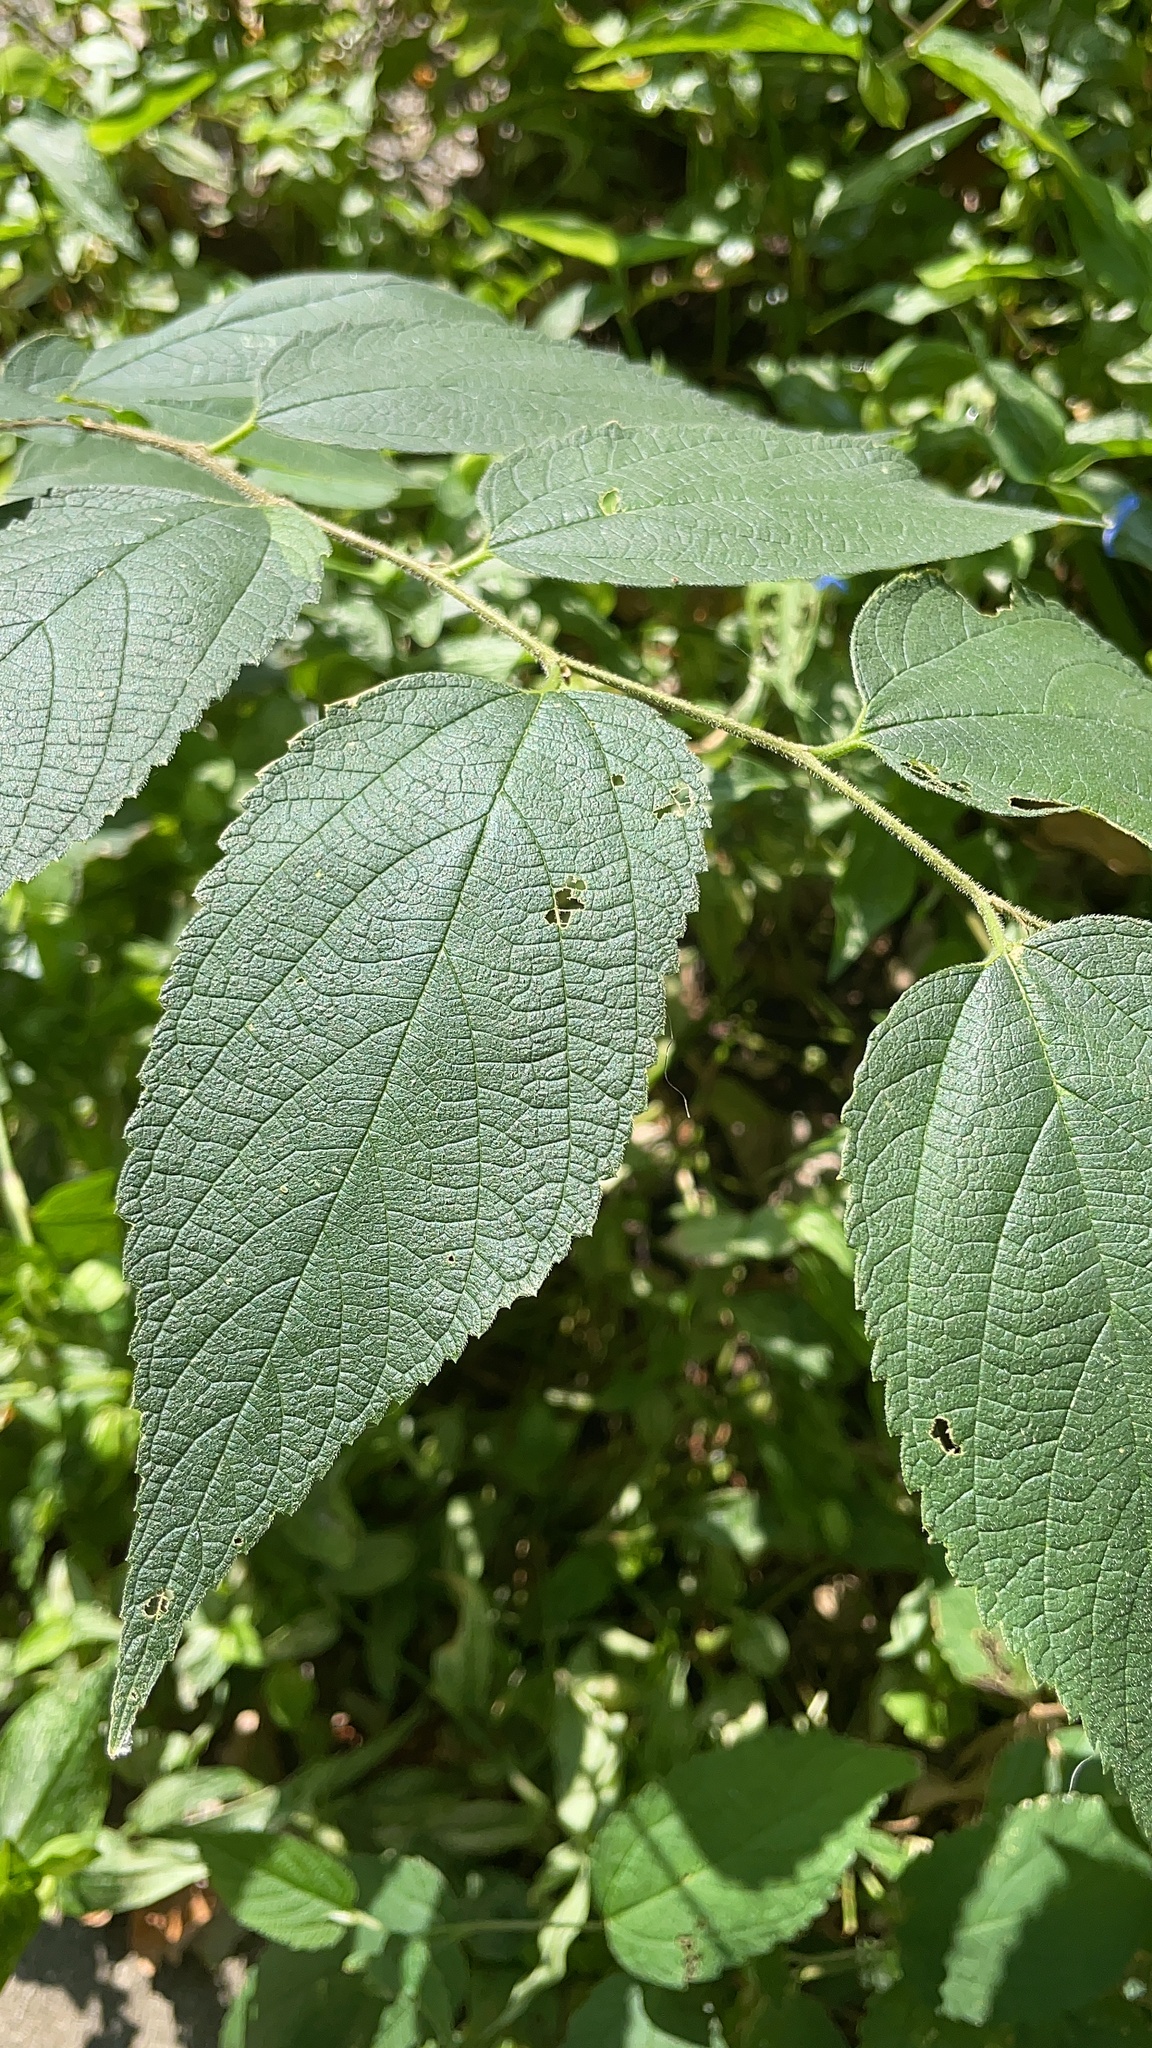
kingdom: Plantae
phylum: Tracheophyta
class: Magnoliopsida
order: Rosales
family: Cannabaceae
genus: Celtis
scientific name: Celtis occidentalis
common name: Common hackberry
